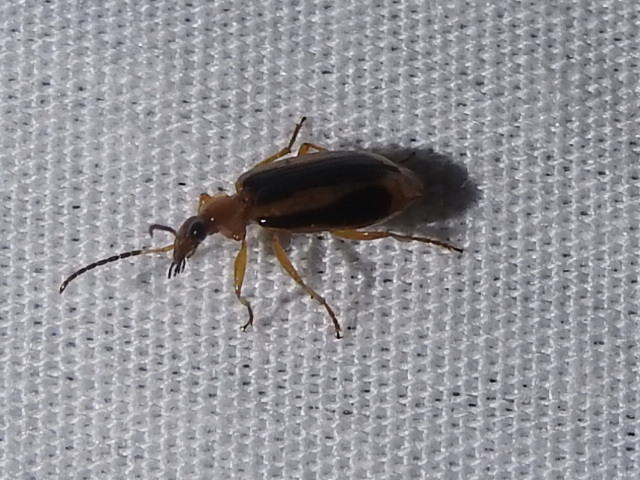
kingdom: Animalia
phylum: Arthropoda
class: Insecta
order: Coleoptera
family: Carabidae
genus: Lebia
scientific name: Lebia solea
